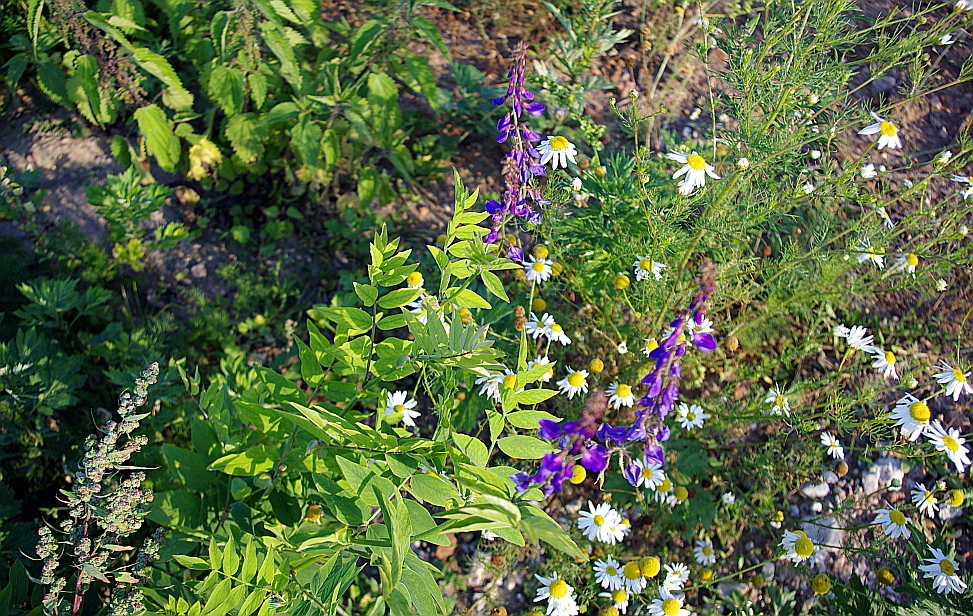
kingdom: Plantae
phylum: Tracheophyta
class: Magnoliopsida
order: Fabales
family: Fabaceae
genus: Galega
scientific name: Galega orientalis
